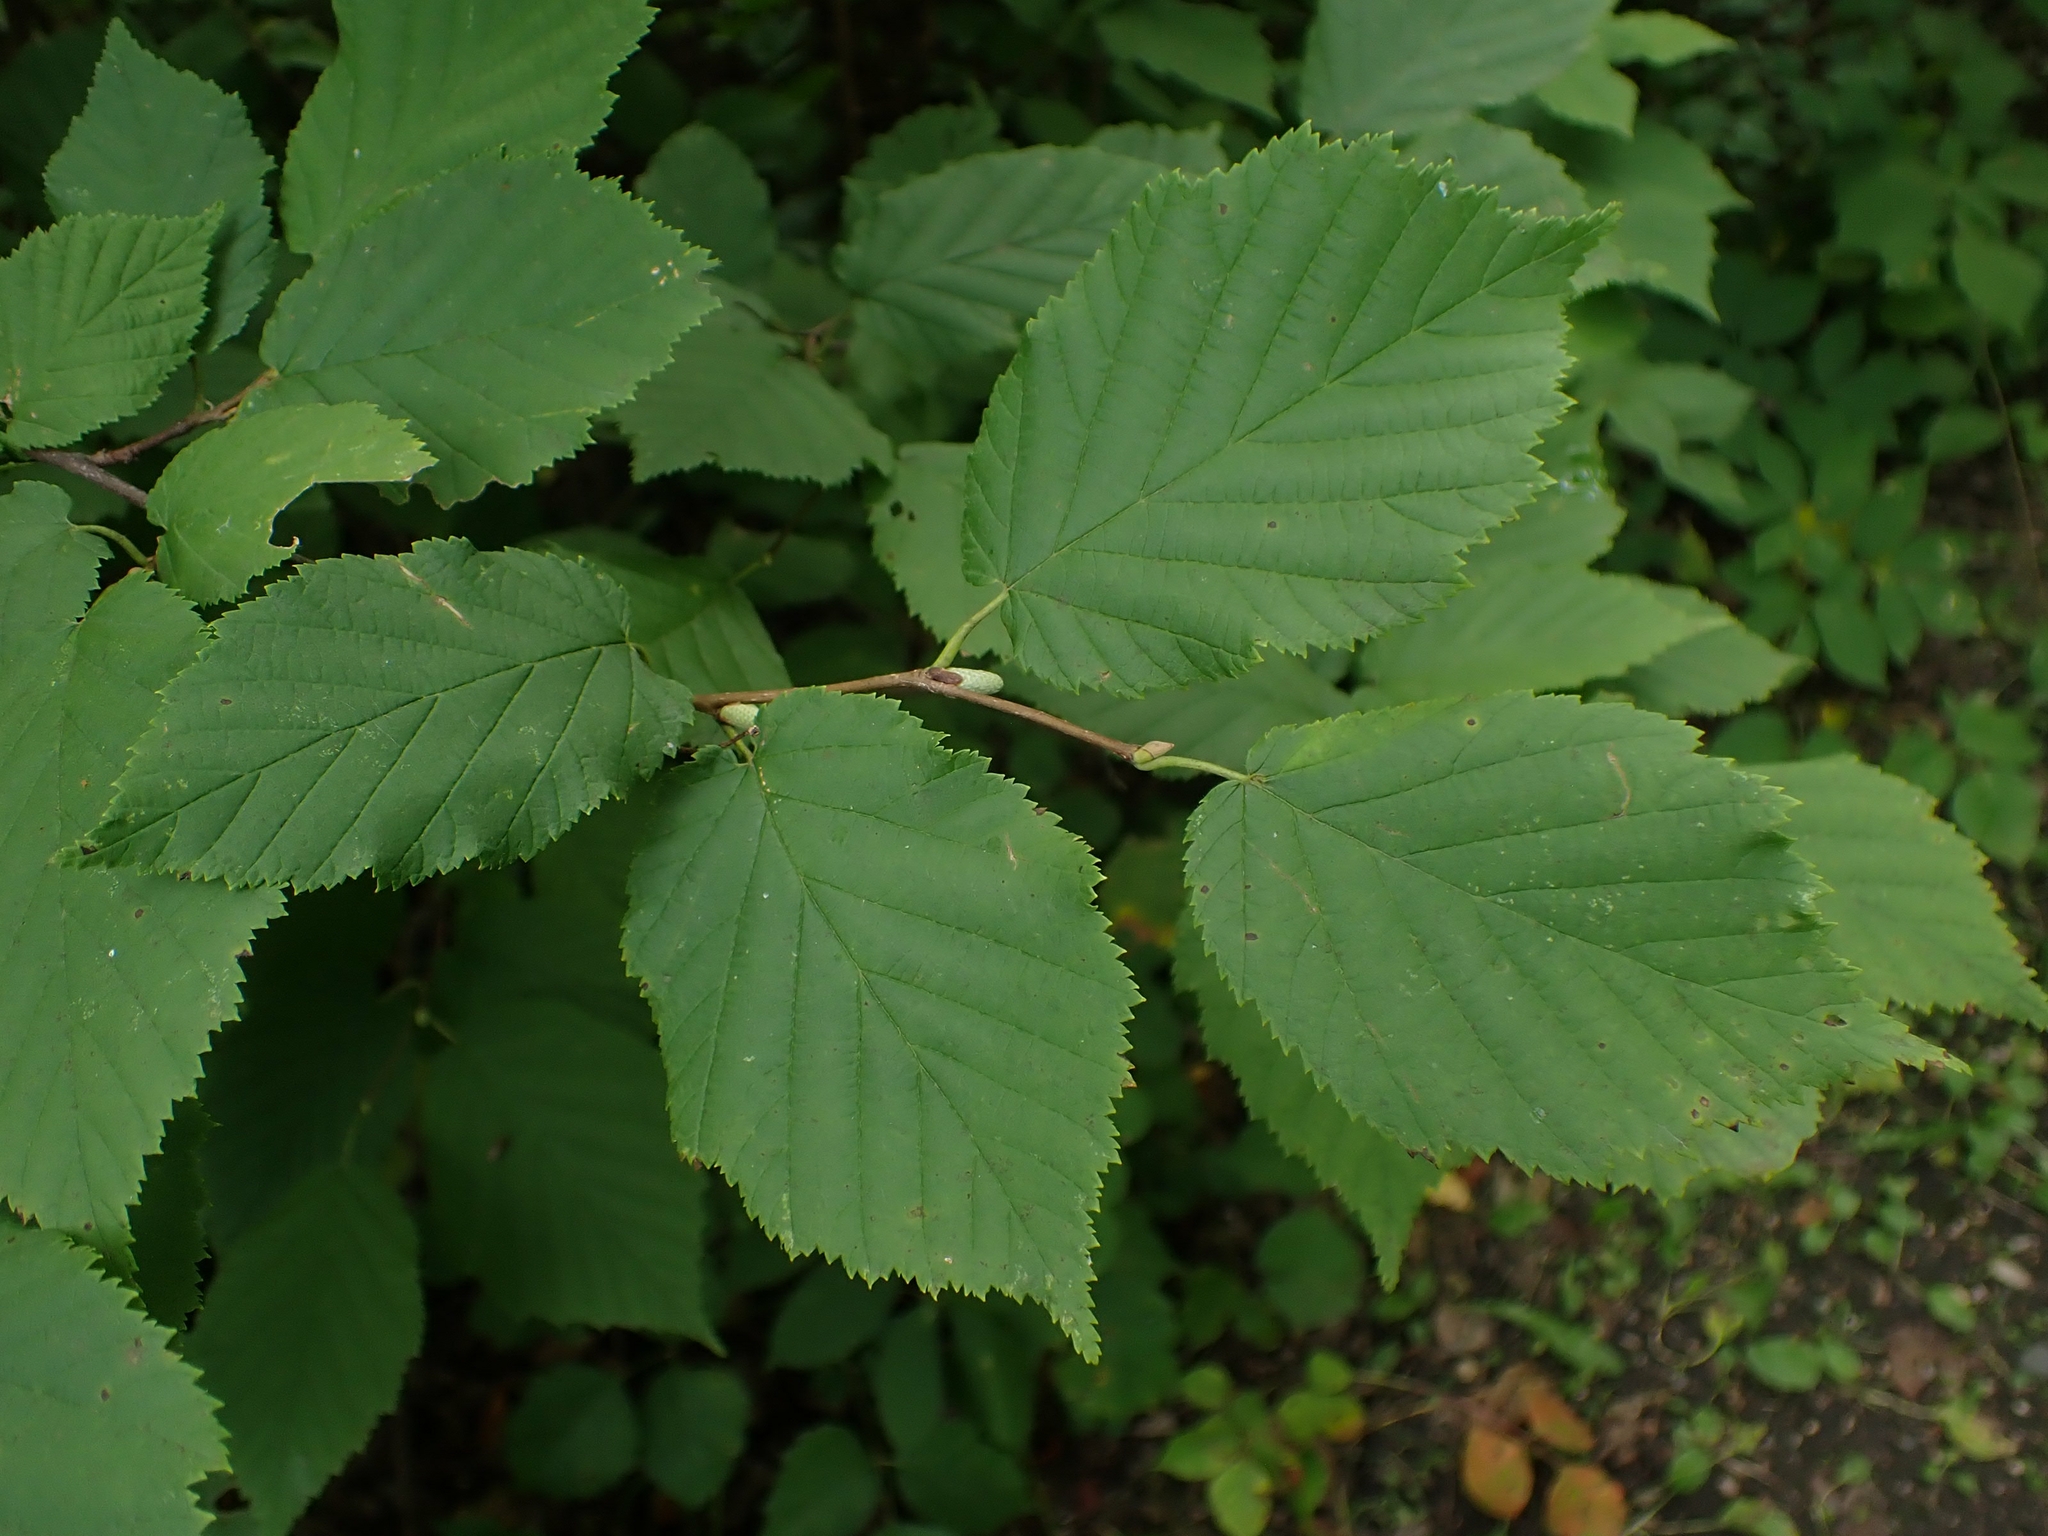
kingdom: Plantae
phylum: Tracheophyta
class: Magnoliopsida
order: Fagales
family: Betulaceae
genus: Corylus
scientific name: Corylus americana
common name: American hazel
